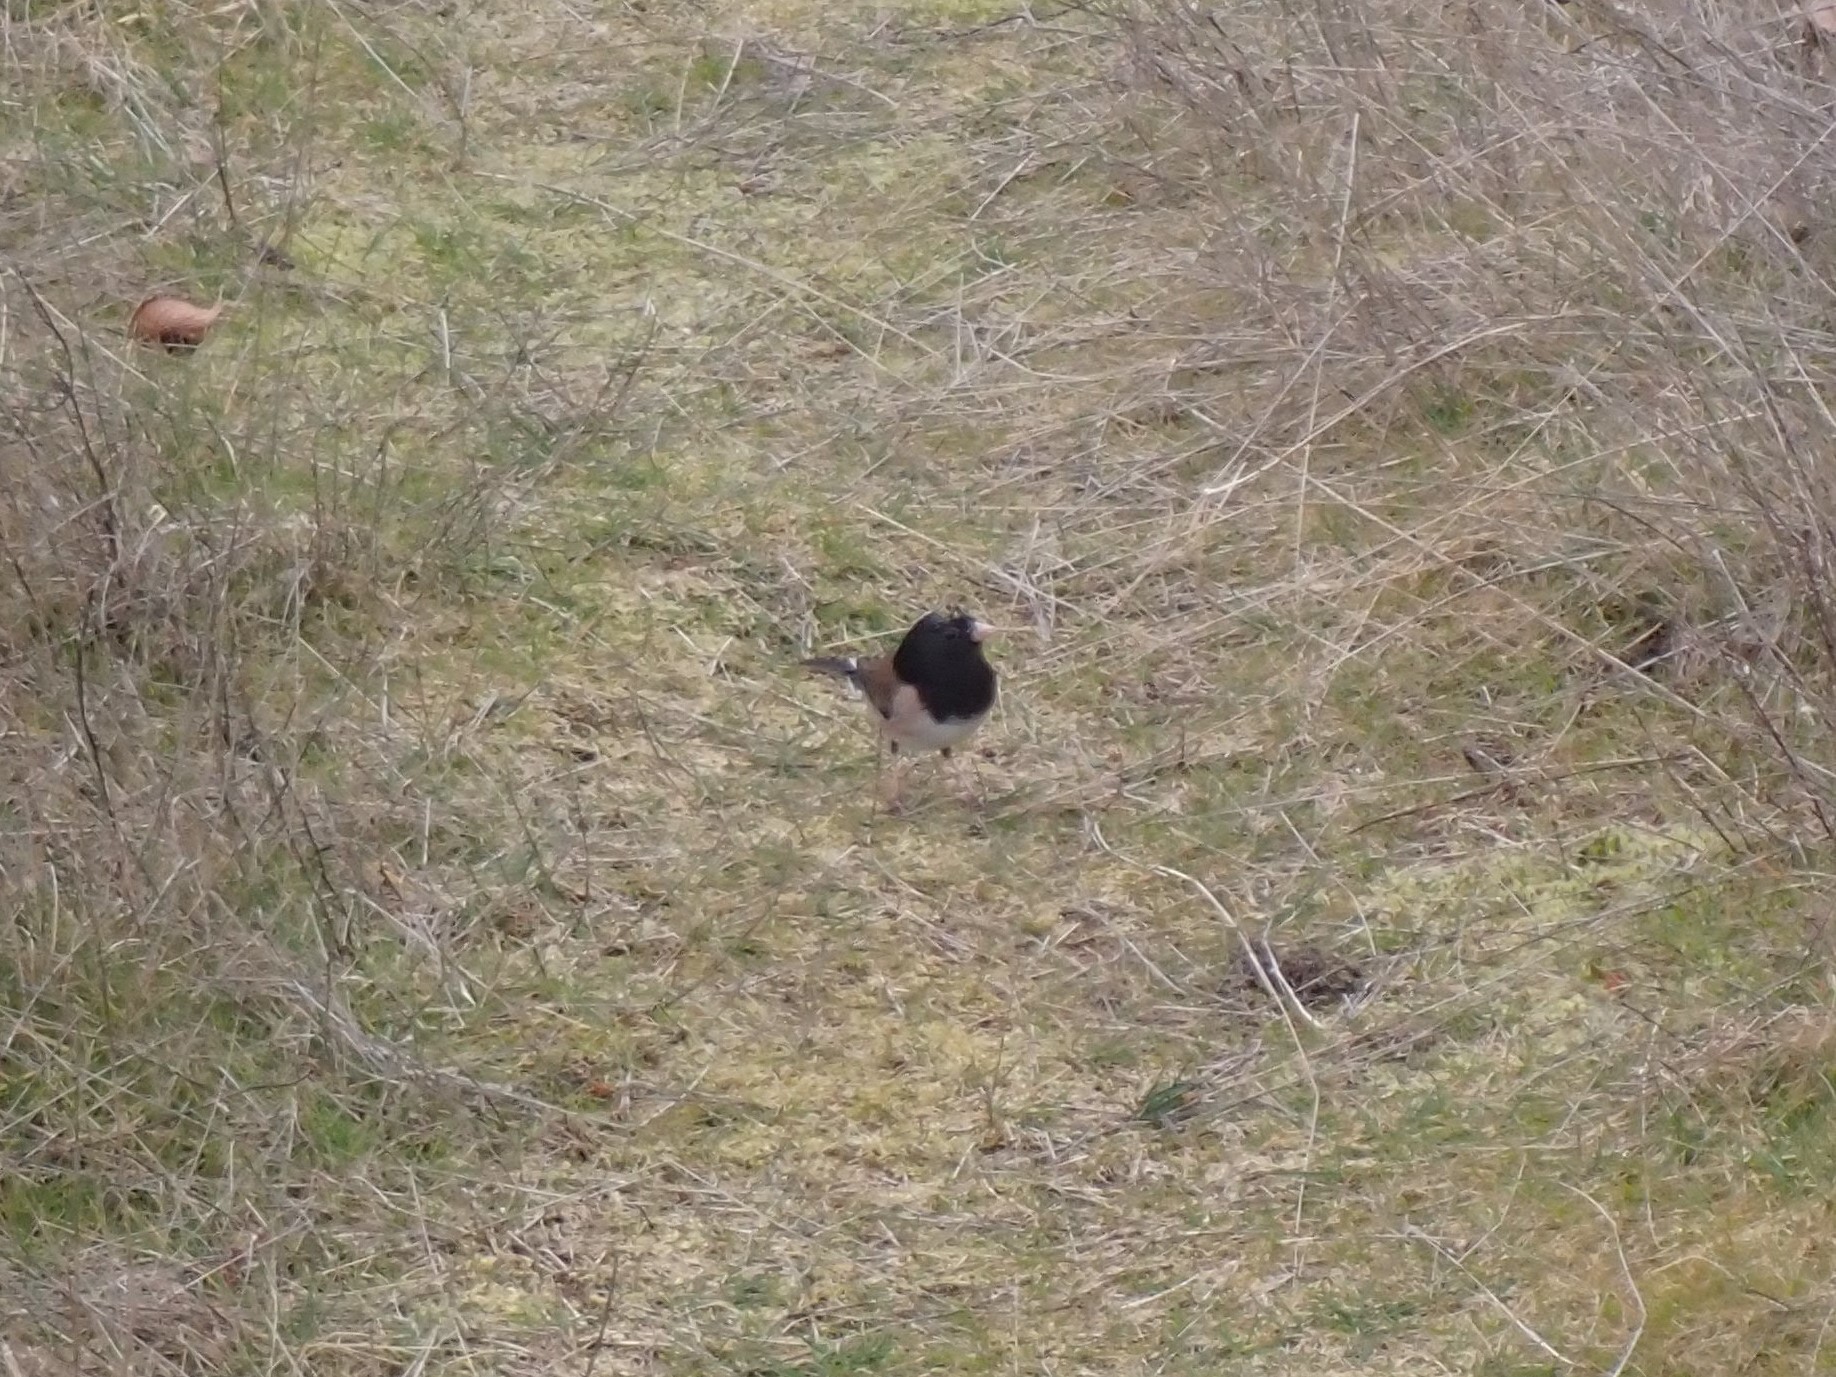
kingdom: Animalia
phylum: Chordata
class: Aves
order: Passeriformes
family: Passerellidae
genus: Junco
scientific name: Junco hyemalis
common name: Dark-eyed junco
